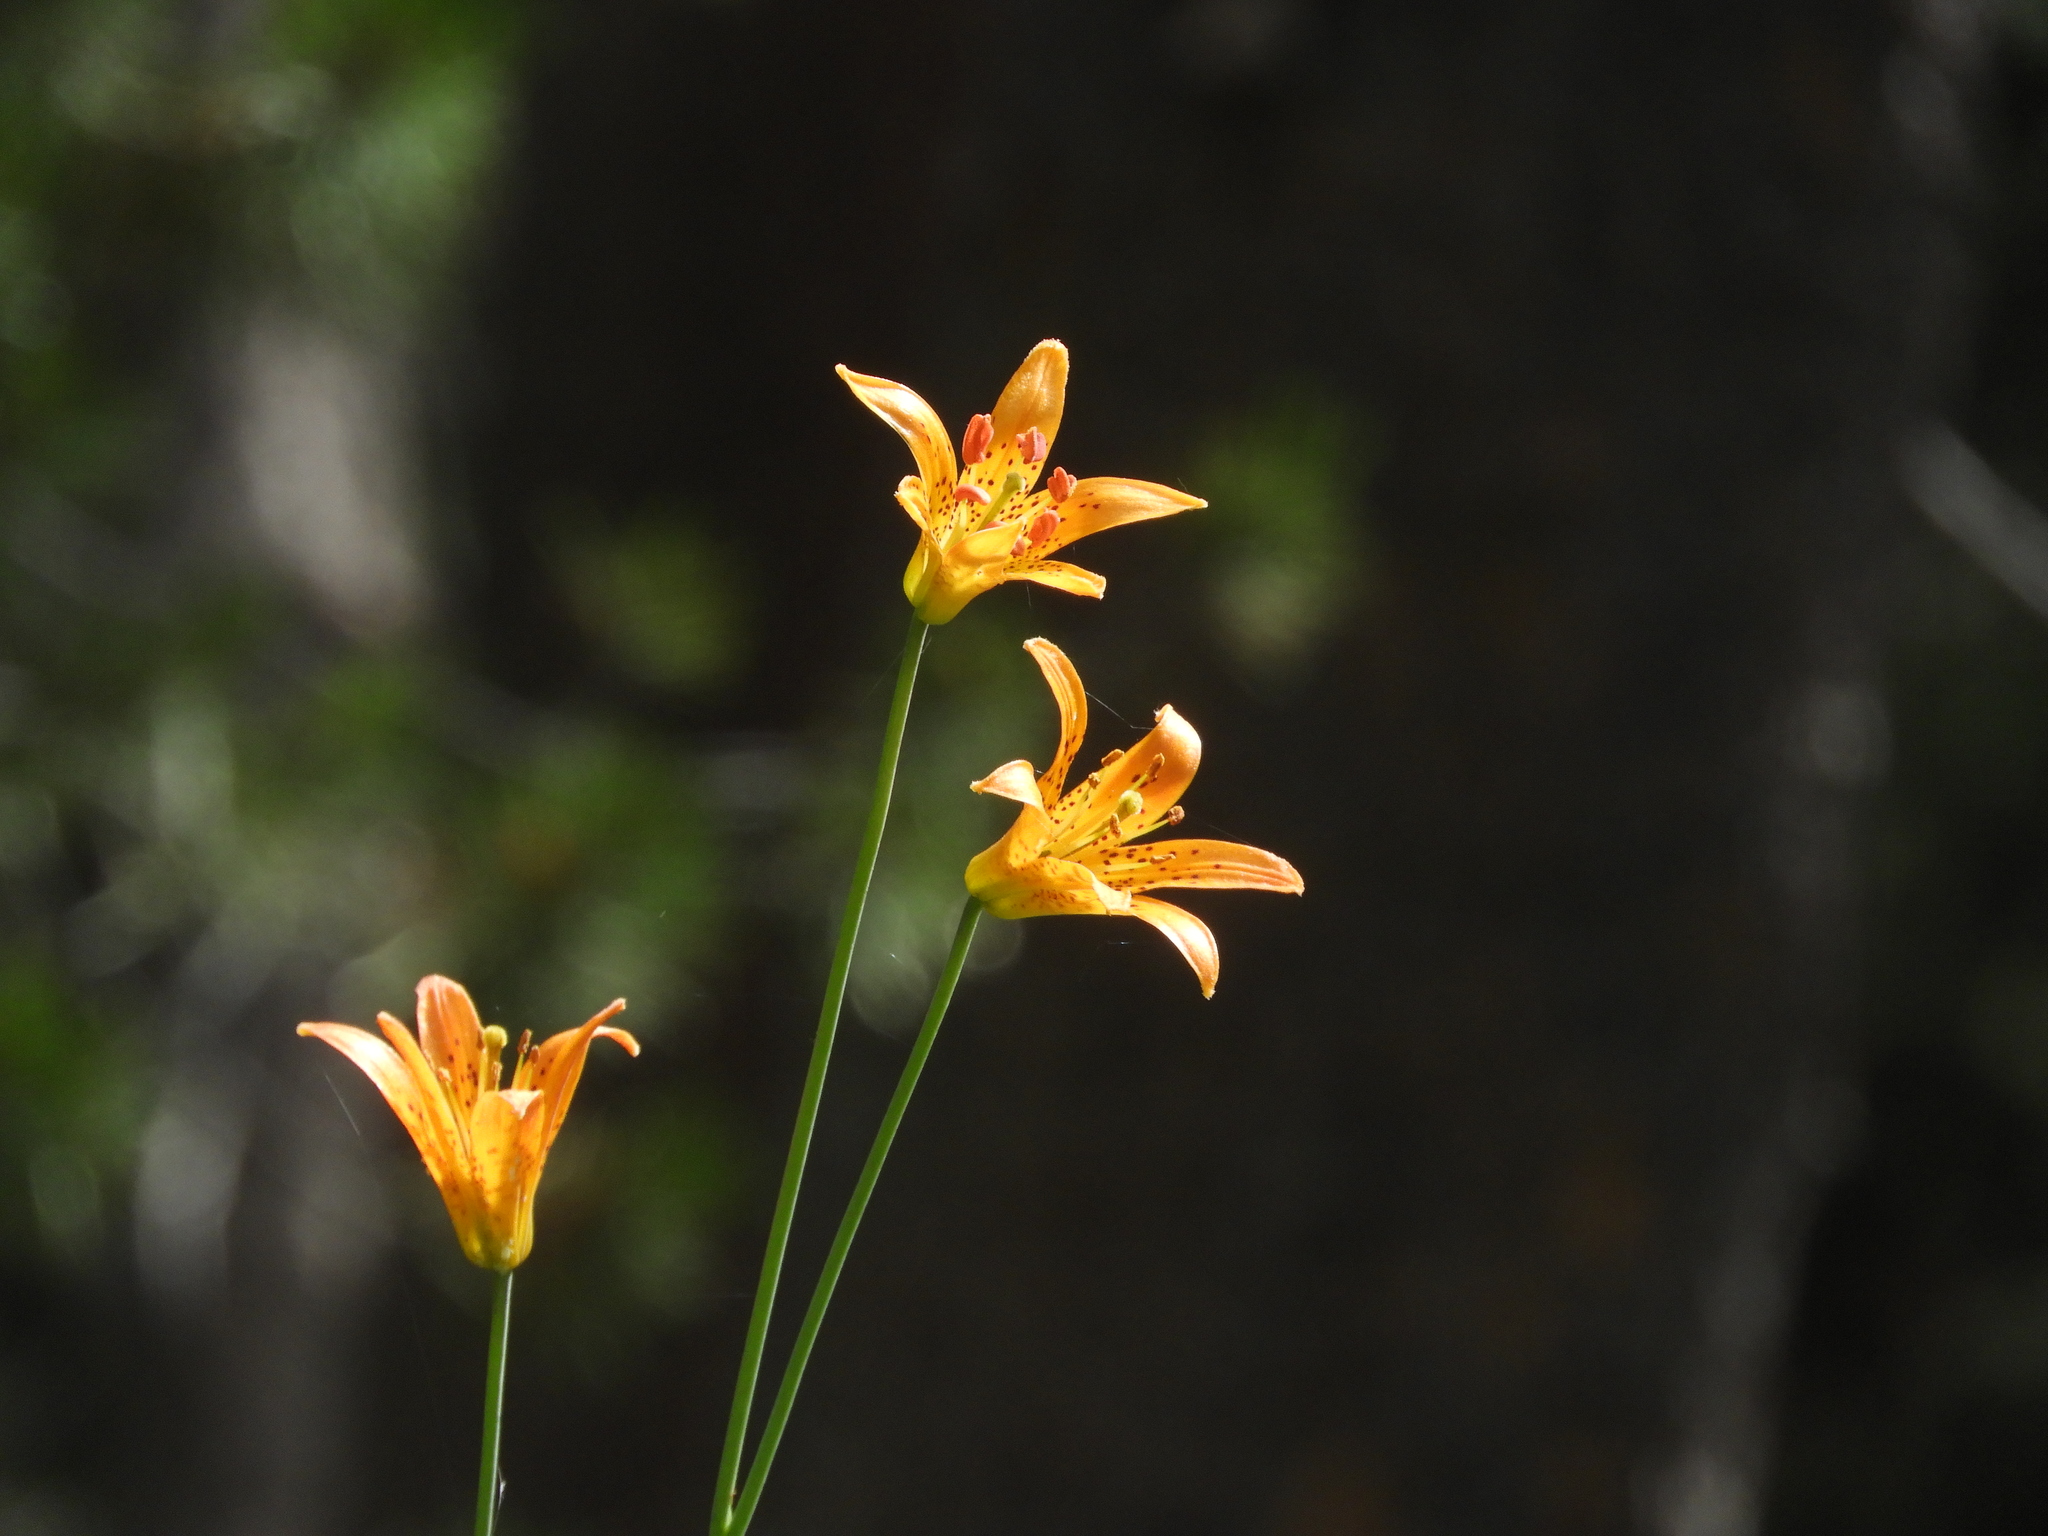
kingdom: Plantae
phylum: Tracheophyta
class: Liliopsida
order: Liliales
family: Liliaceae
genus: Lilium
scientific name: Lilium parvum
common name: Alpine lily
